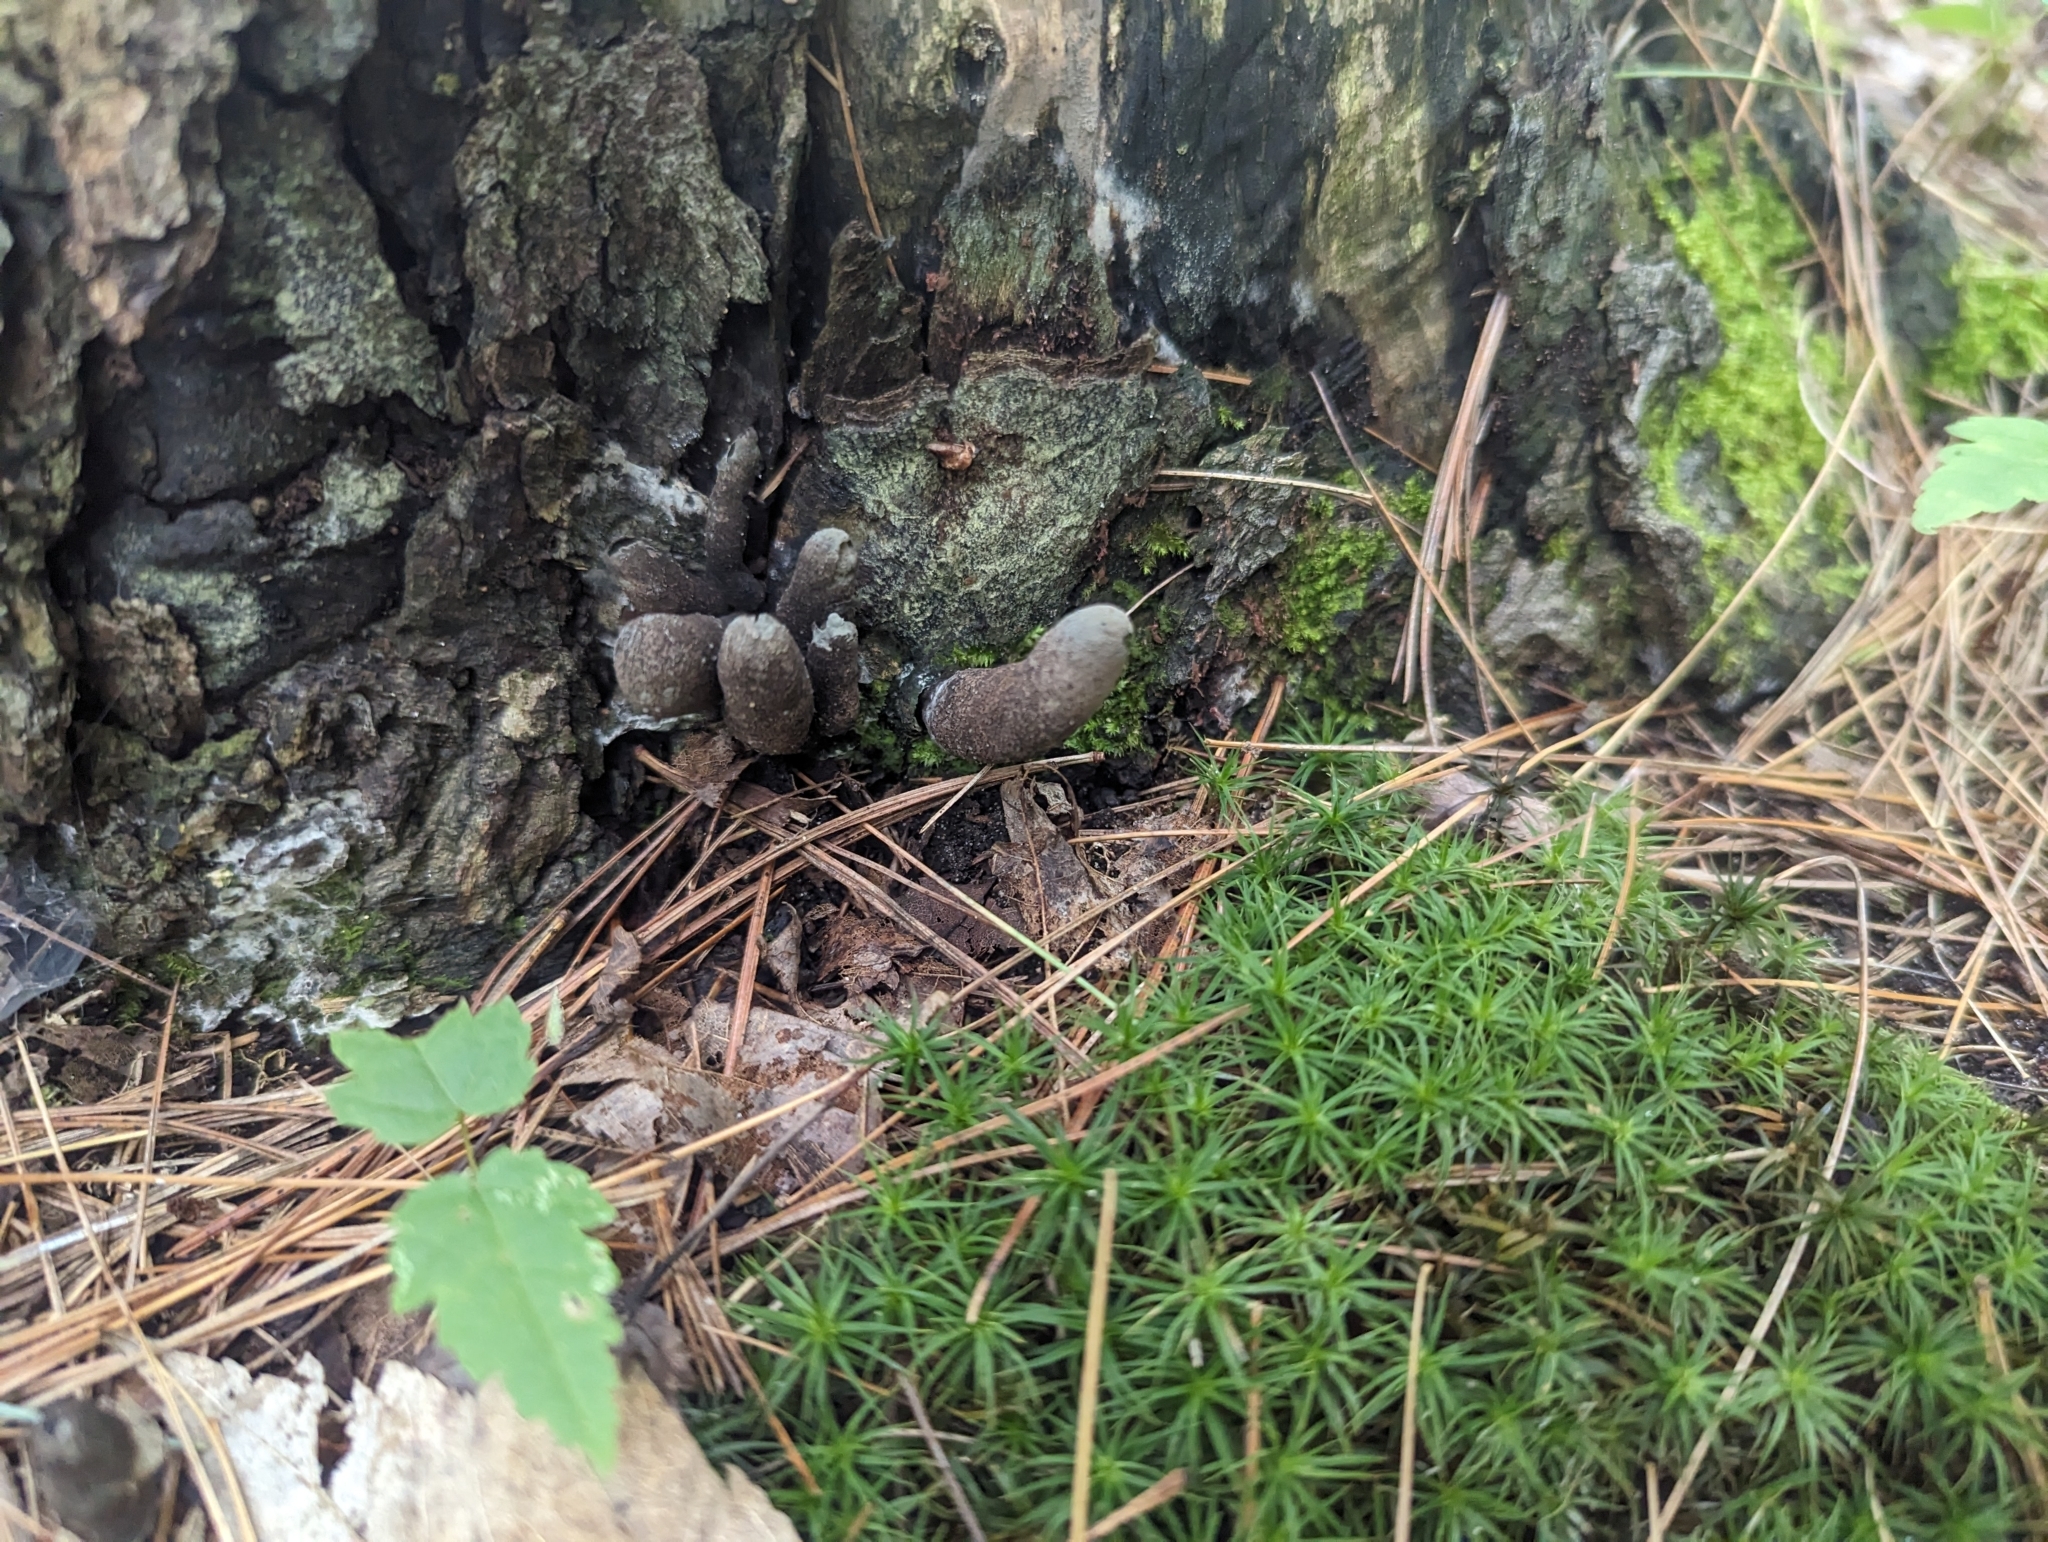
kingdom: Fungi
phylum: Ascomycota
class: Sordariomycetes
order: Xylariales
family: Xylariaceae
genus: Xylaria
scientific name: Xylaria polymorpha
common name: Dead man's fingers
